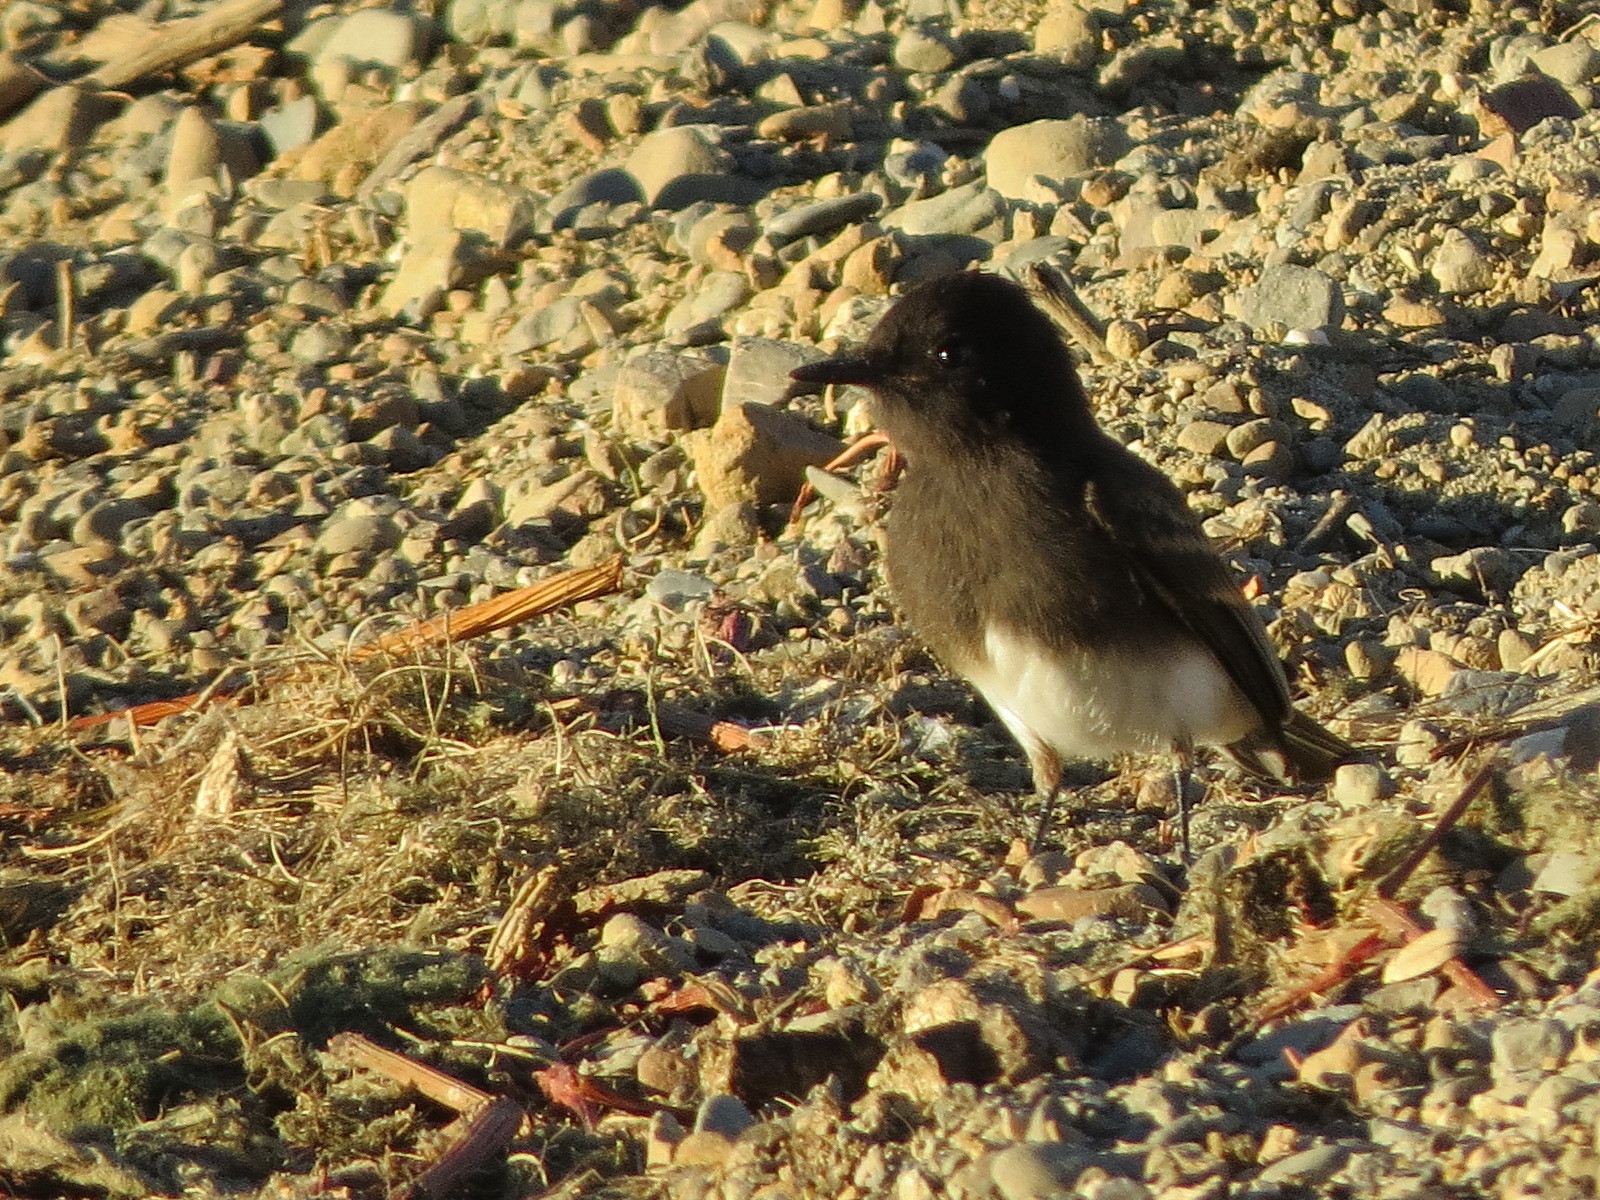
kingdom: Animalia
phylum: Chordata
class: Aves
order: Passeriformes
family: Tyrannidae
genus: Sayornis
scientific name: Sayornis nigricans
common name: Black phoebe
